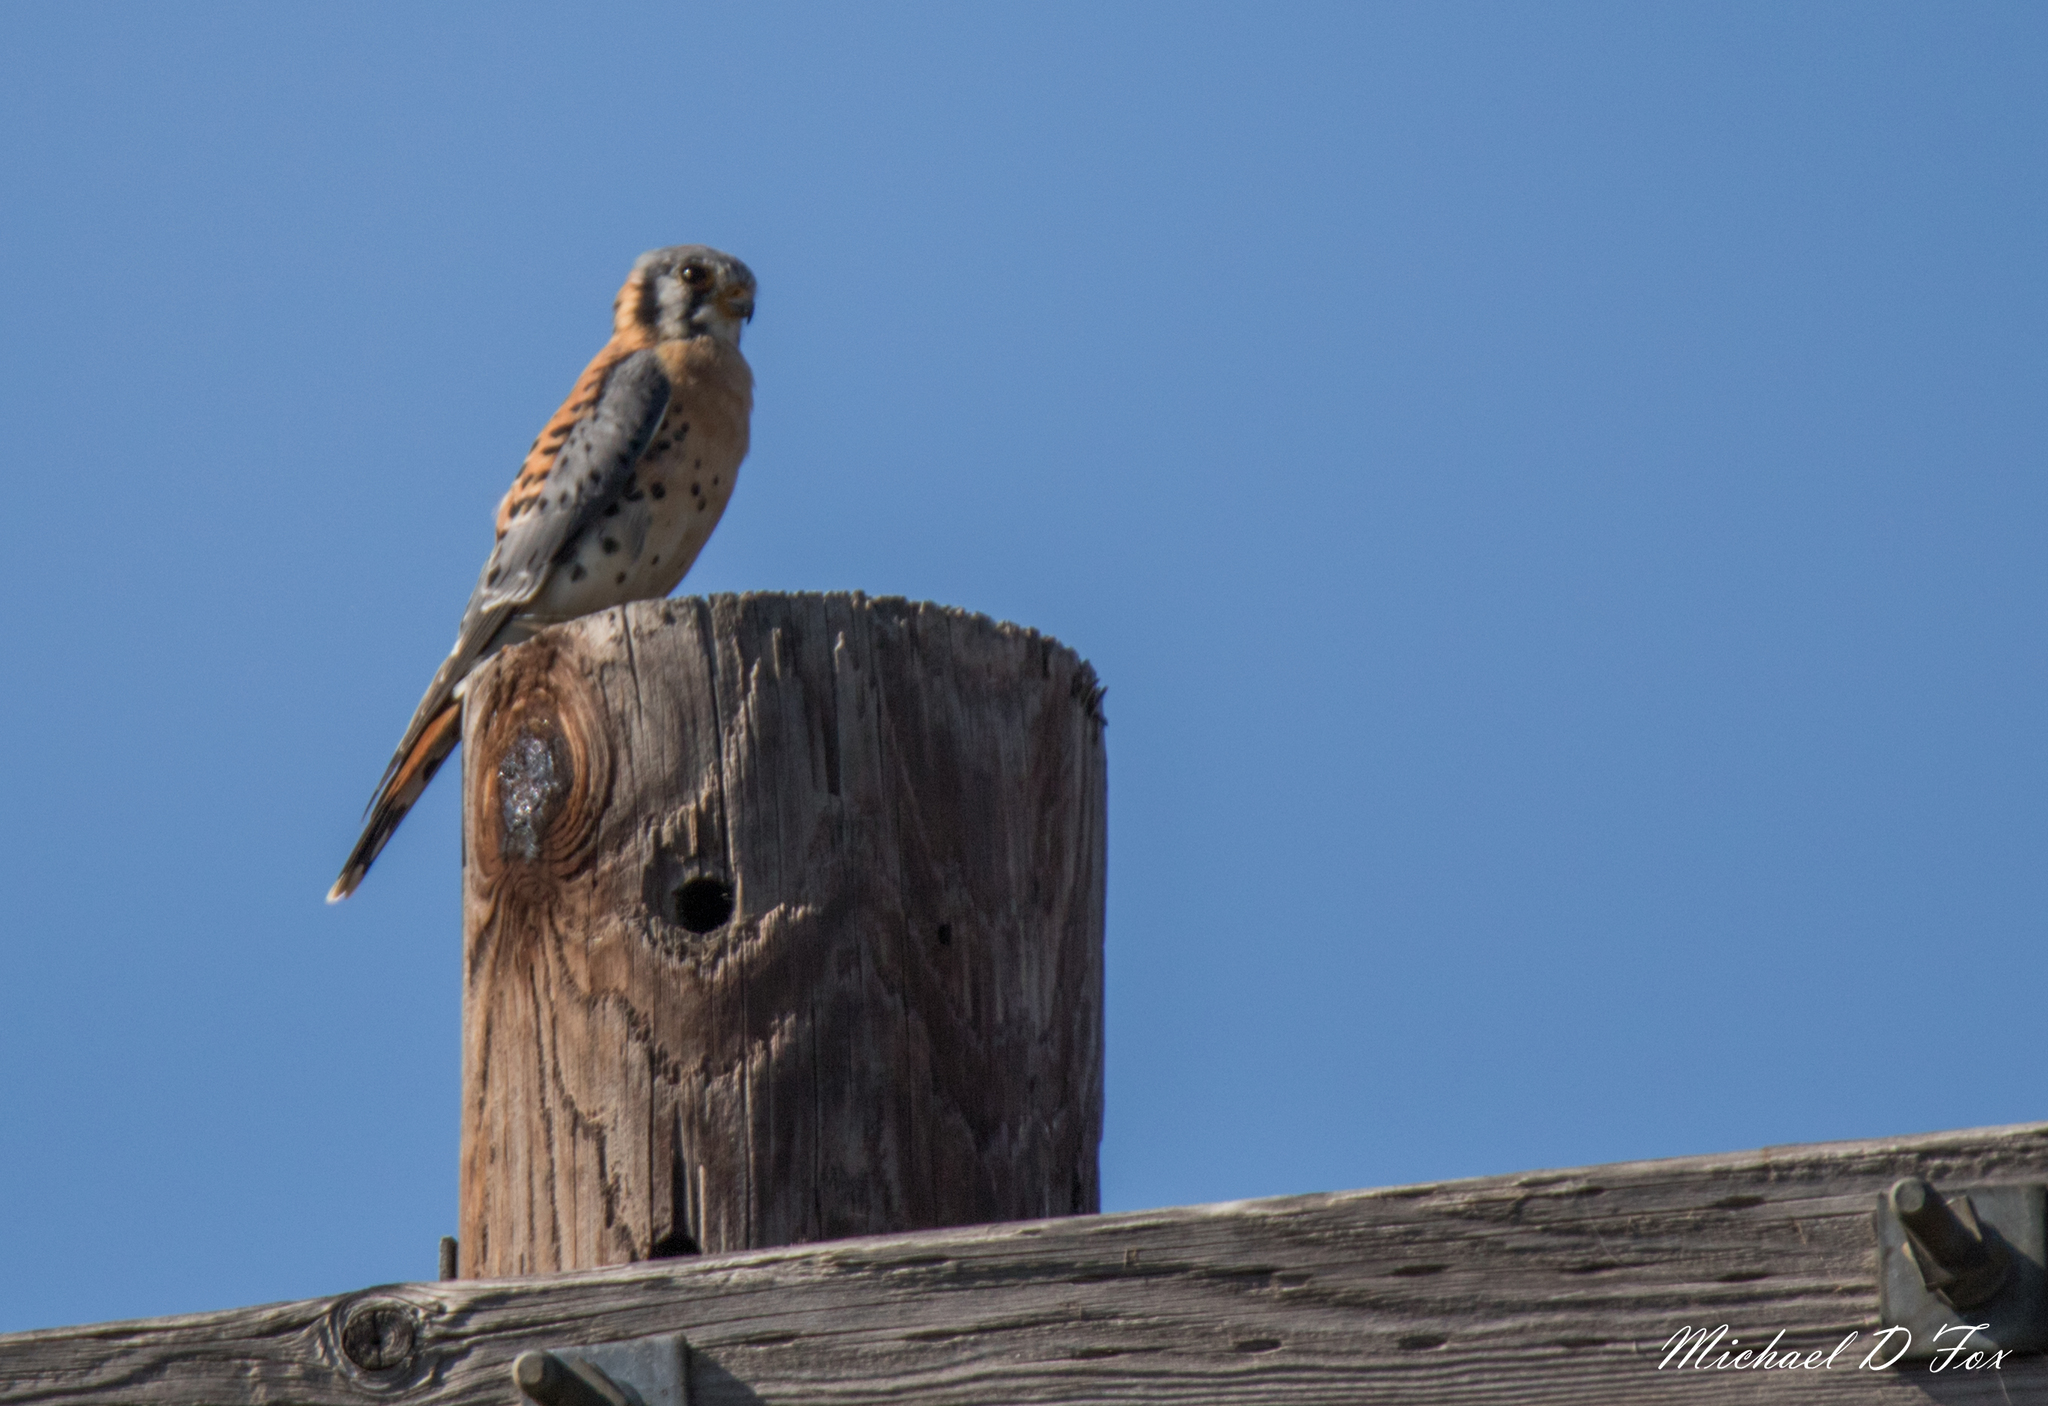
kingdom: Animalia
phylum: Chordata
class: Aves
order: Falconiformes
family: Falconidae
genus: Falco
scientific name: Falco sparverius
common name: American kestrel
